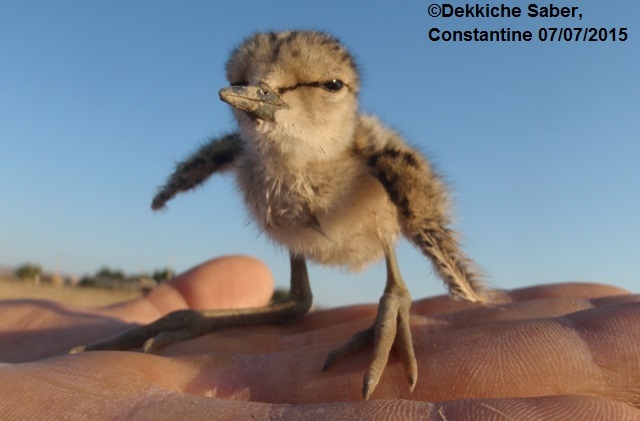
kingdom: Animalia
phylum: Chordata
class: Aves
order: Charadriiformes
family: Recurvirostridae
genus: Himantopus
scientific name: Himantopus himantopus
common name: Black-winged stilt
